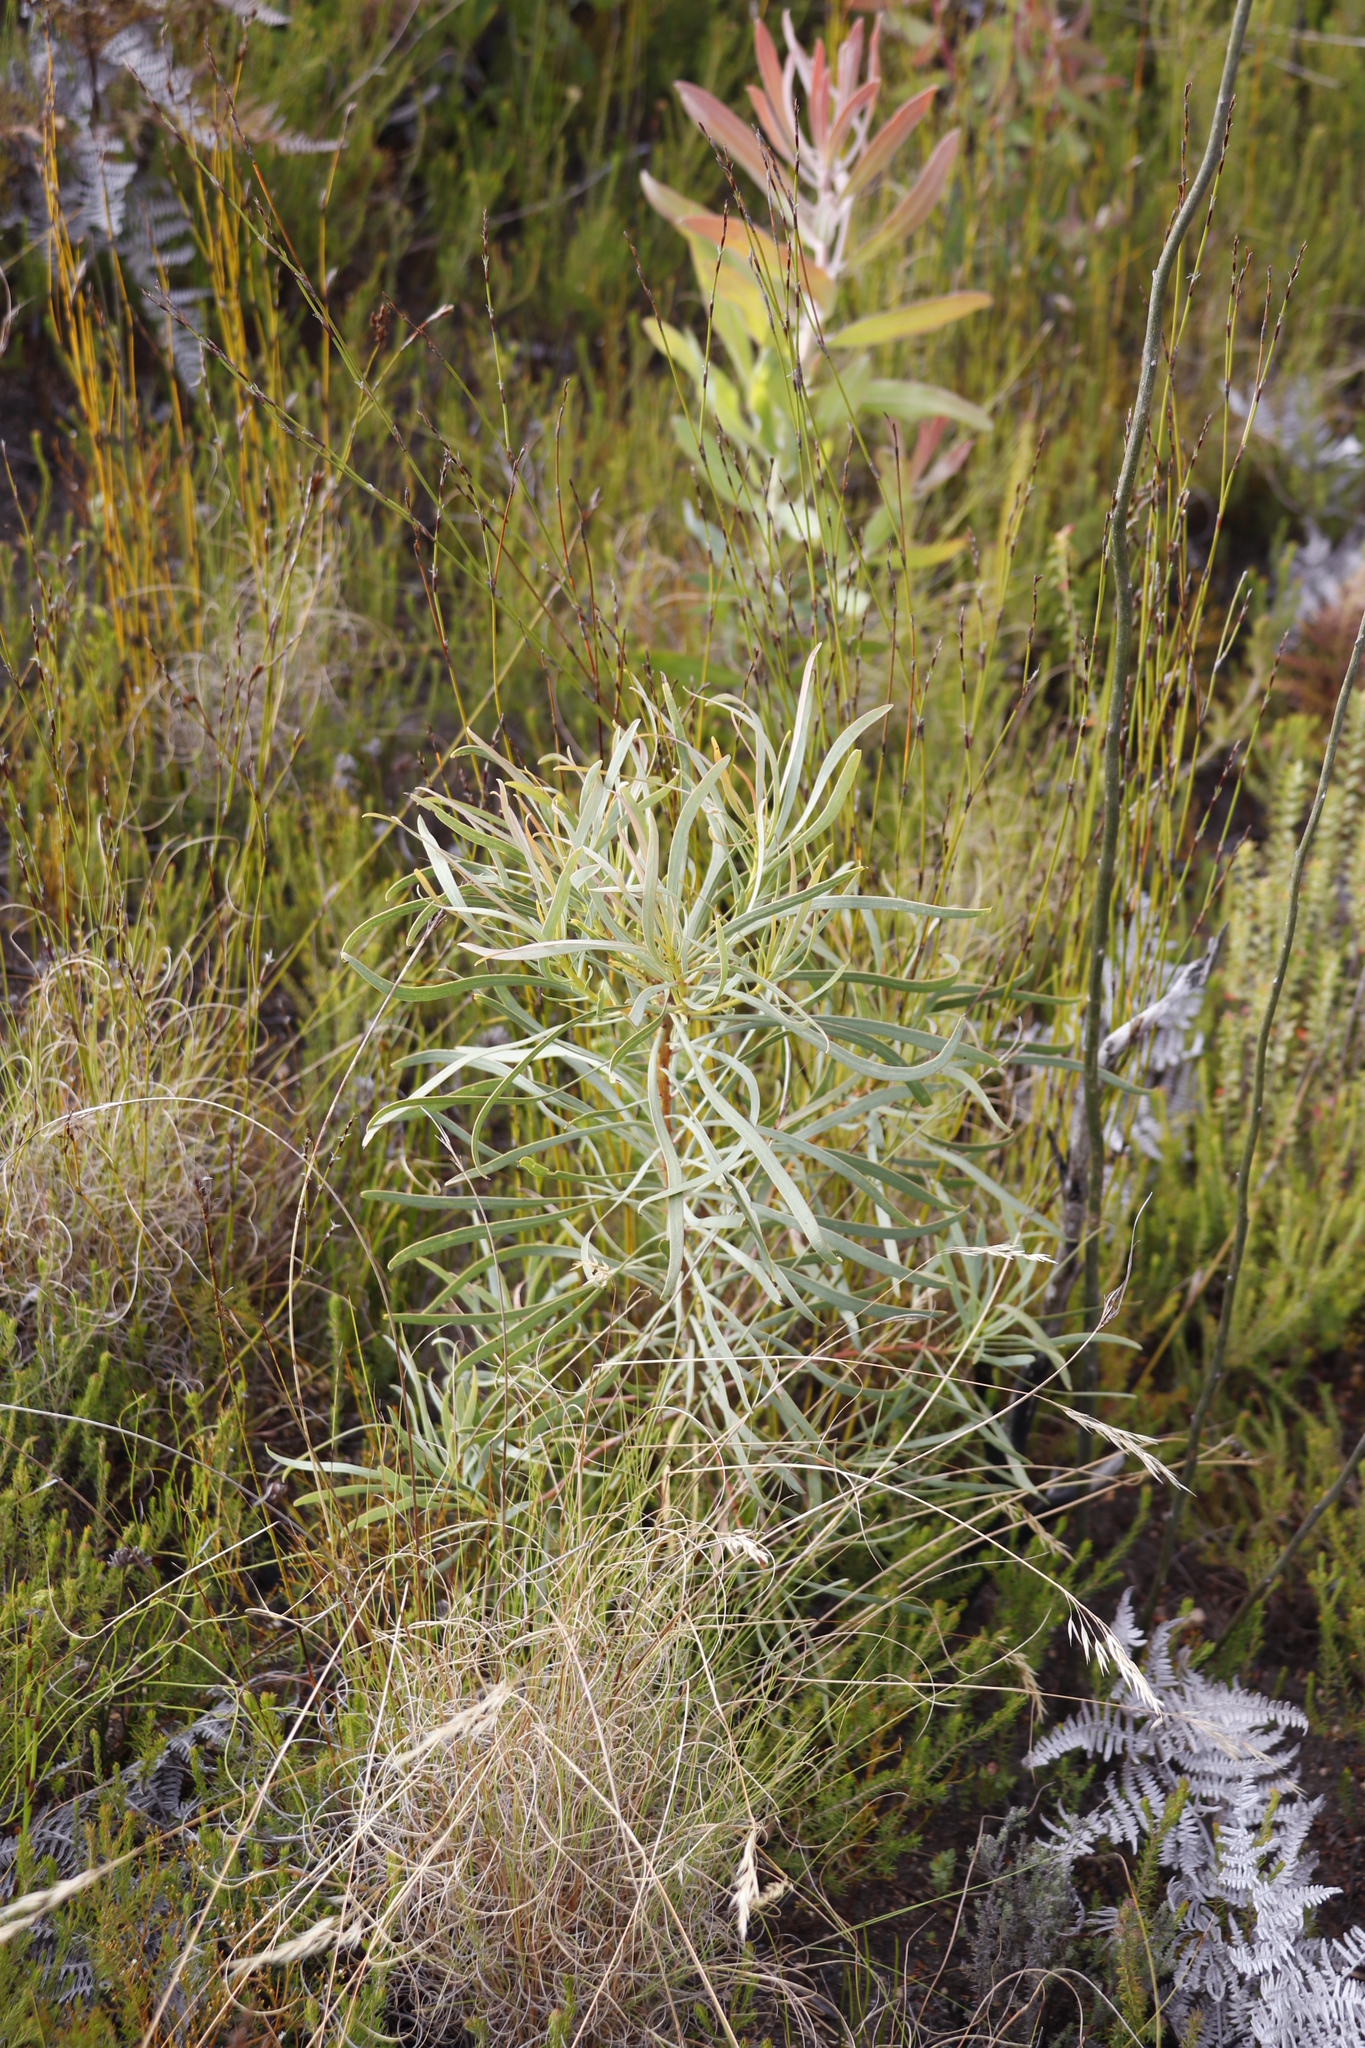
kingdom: Plantae
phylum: Tracheophyta
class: Magnoliopsida
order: Proteales
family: Proteaceae
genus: Protea
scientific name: Protea repens
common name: Sugarbush
